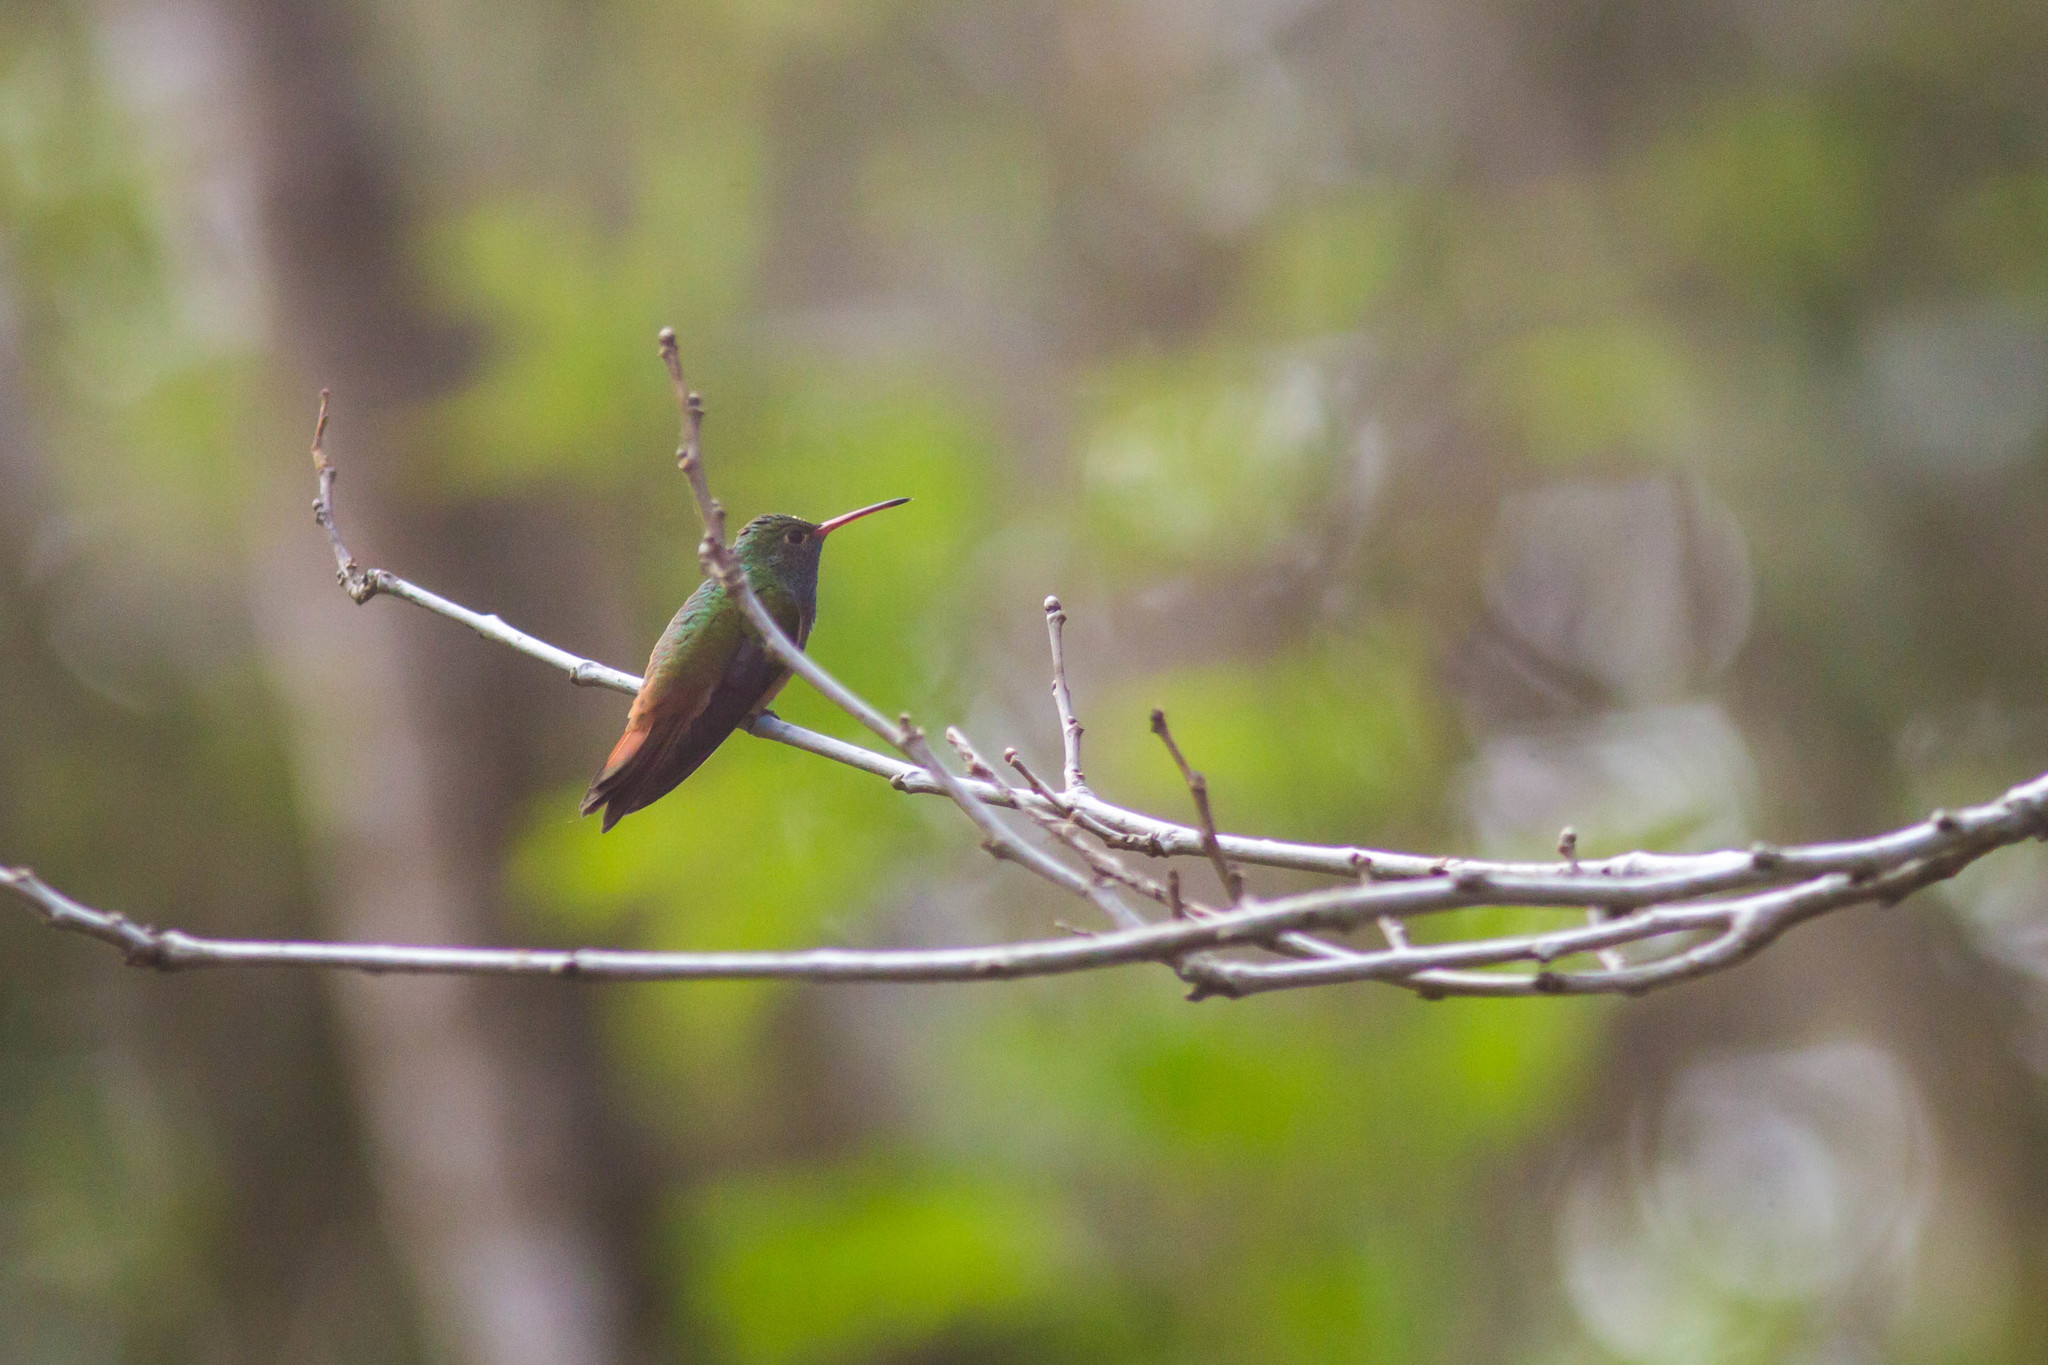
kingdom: Animalia
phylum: Chordata
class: Aves
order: Apodiformes
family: Trochilidae
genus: Amazilia
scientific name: Amazilia yucatanensis
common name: Buff-bellied hummingbird
